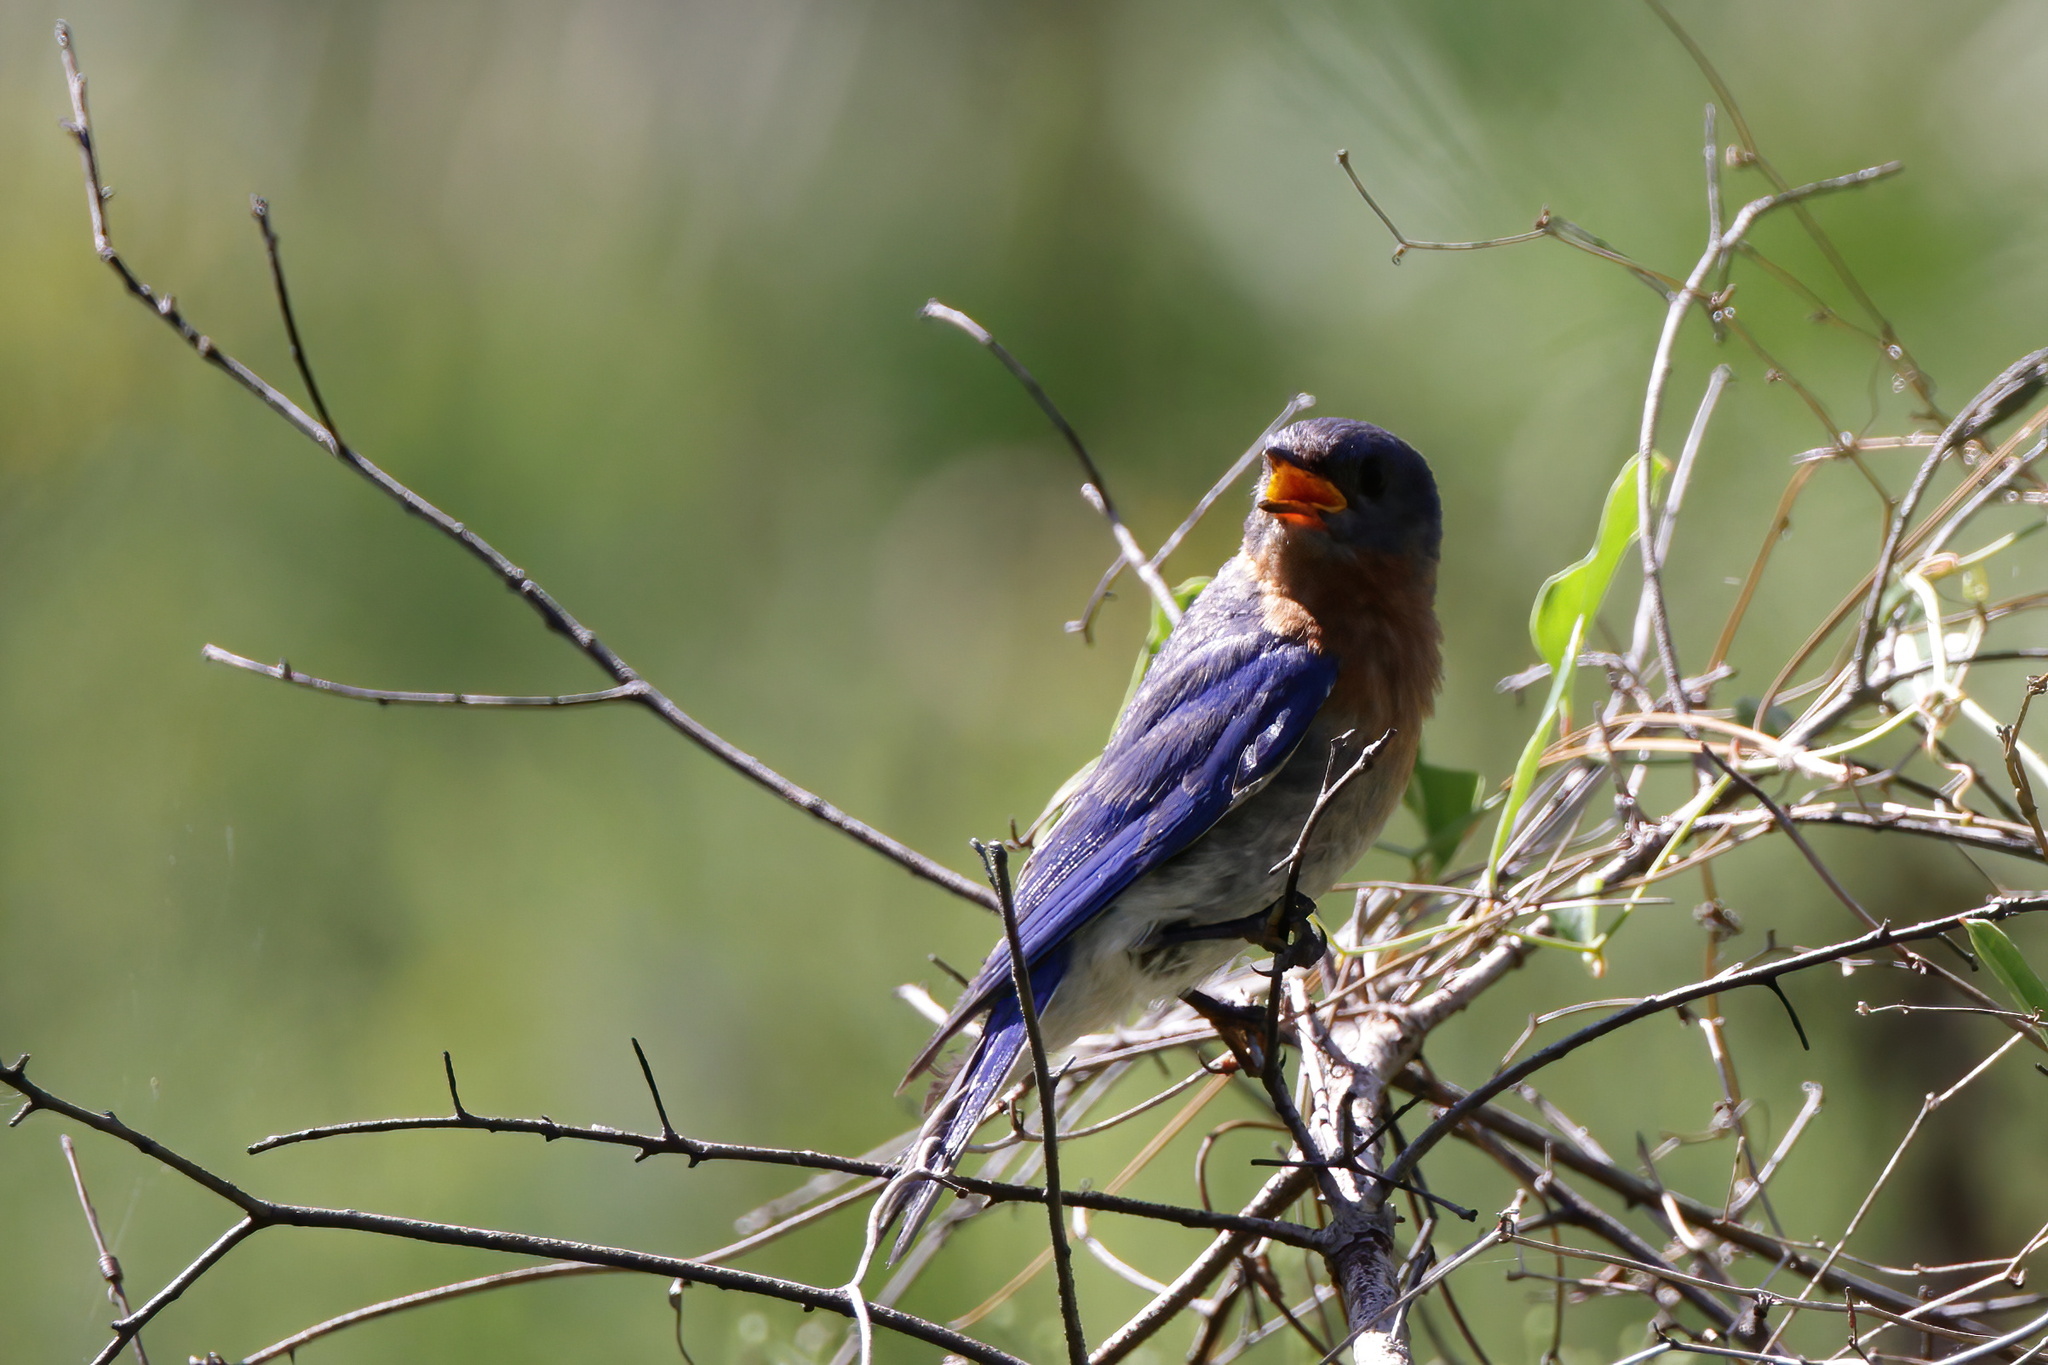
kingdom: Animalia
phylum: Chordata
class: Aves
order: Passeriformes
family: Turdidae
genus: Sialia
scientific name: Sialia sialis
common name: Eastern bluebird
